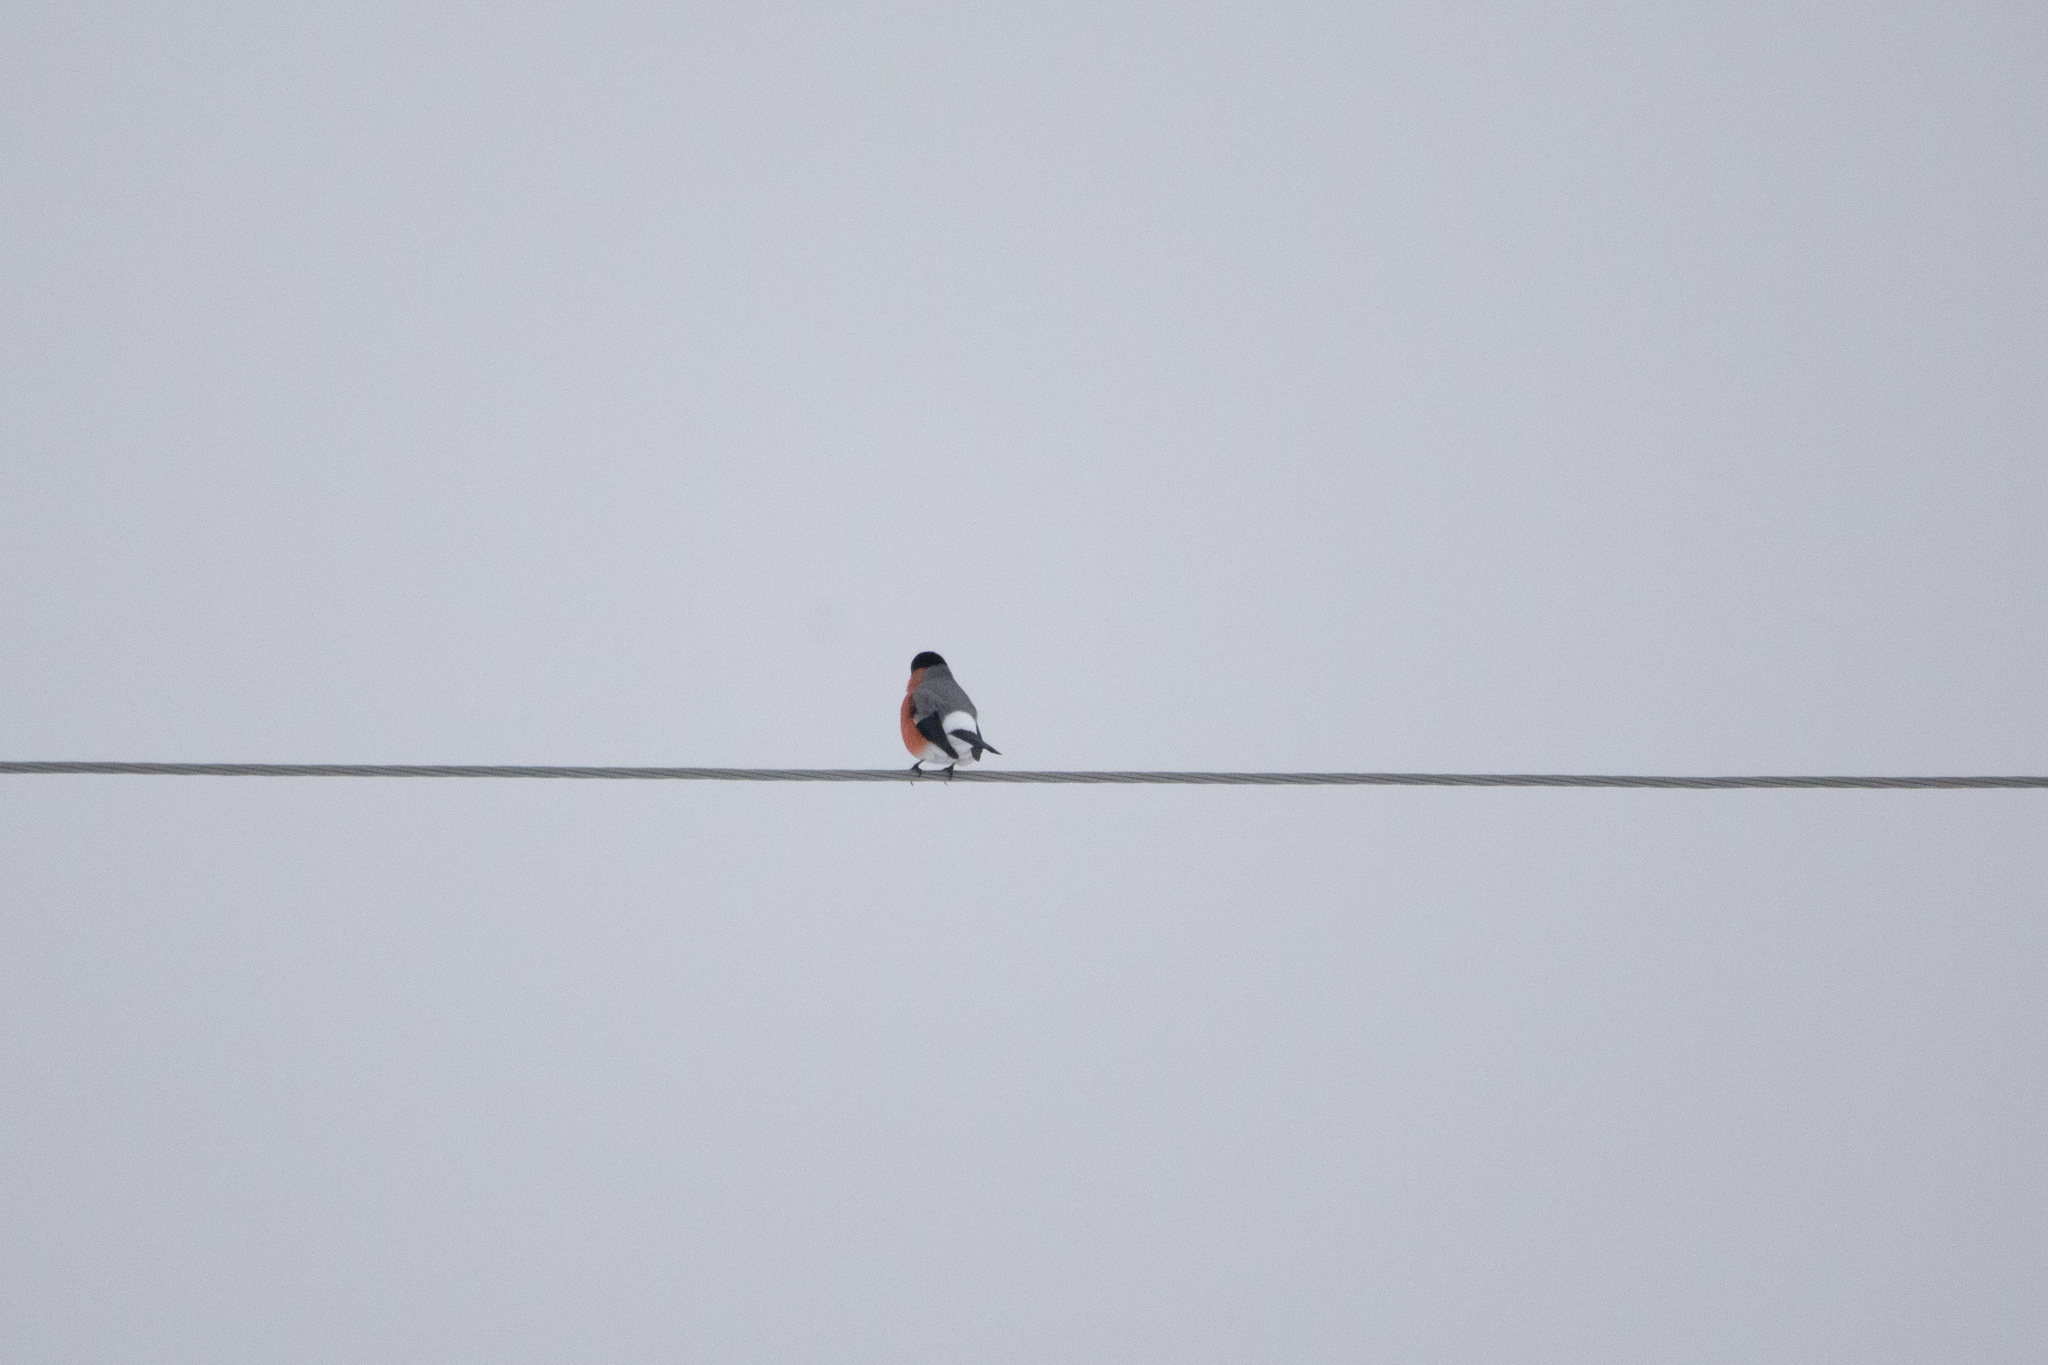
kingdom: Animalia
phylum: Chordata
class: Aves
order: Passeriformes
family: Fringillidae
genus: Pyrrhula
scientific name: Pyrrhula pyrrhula
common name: Eurasian bullfinch
